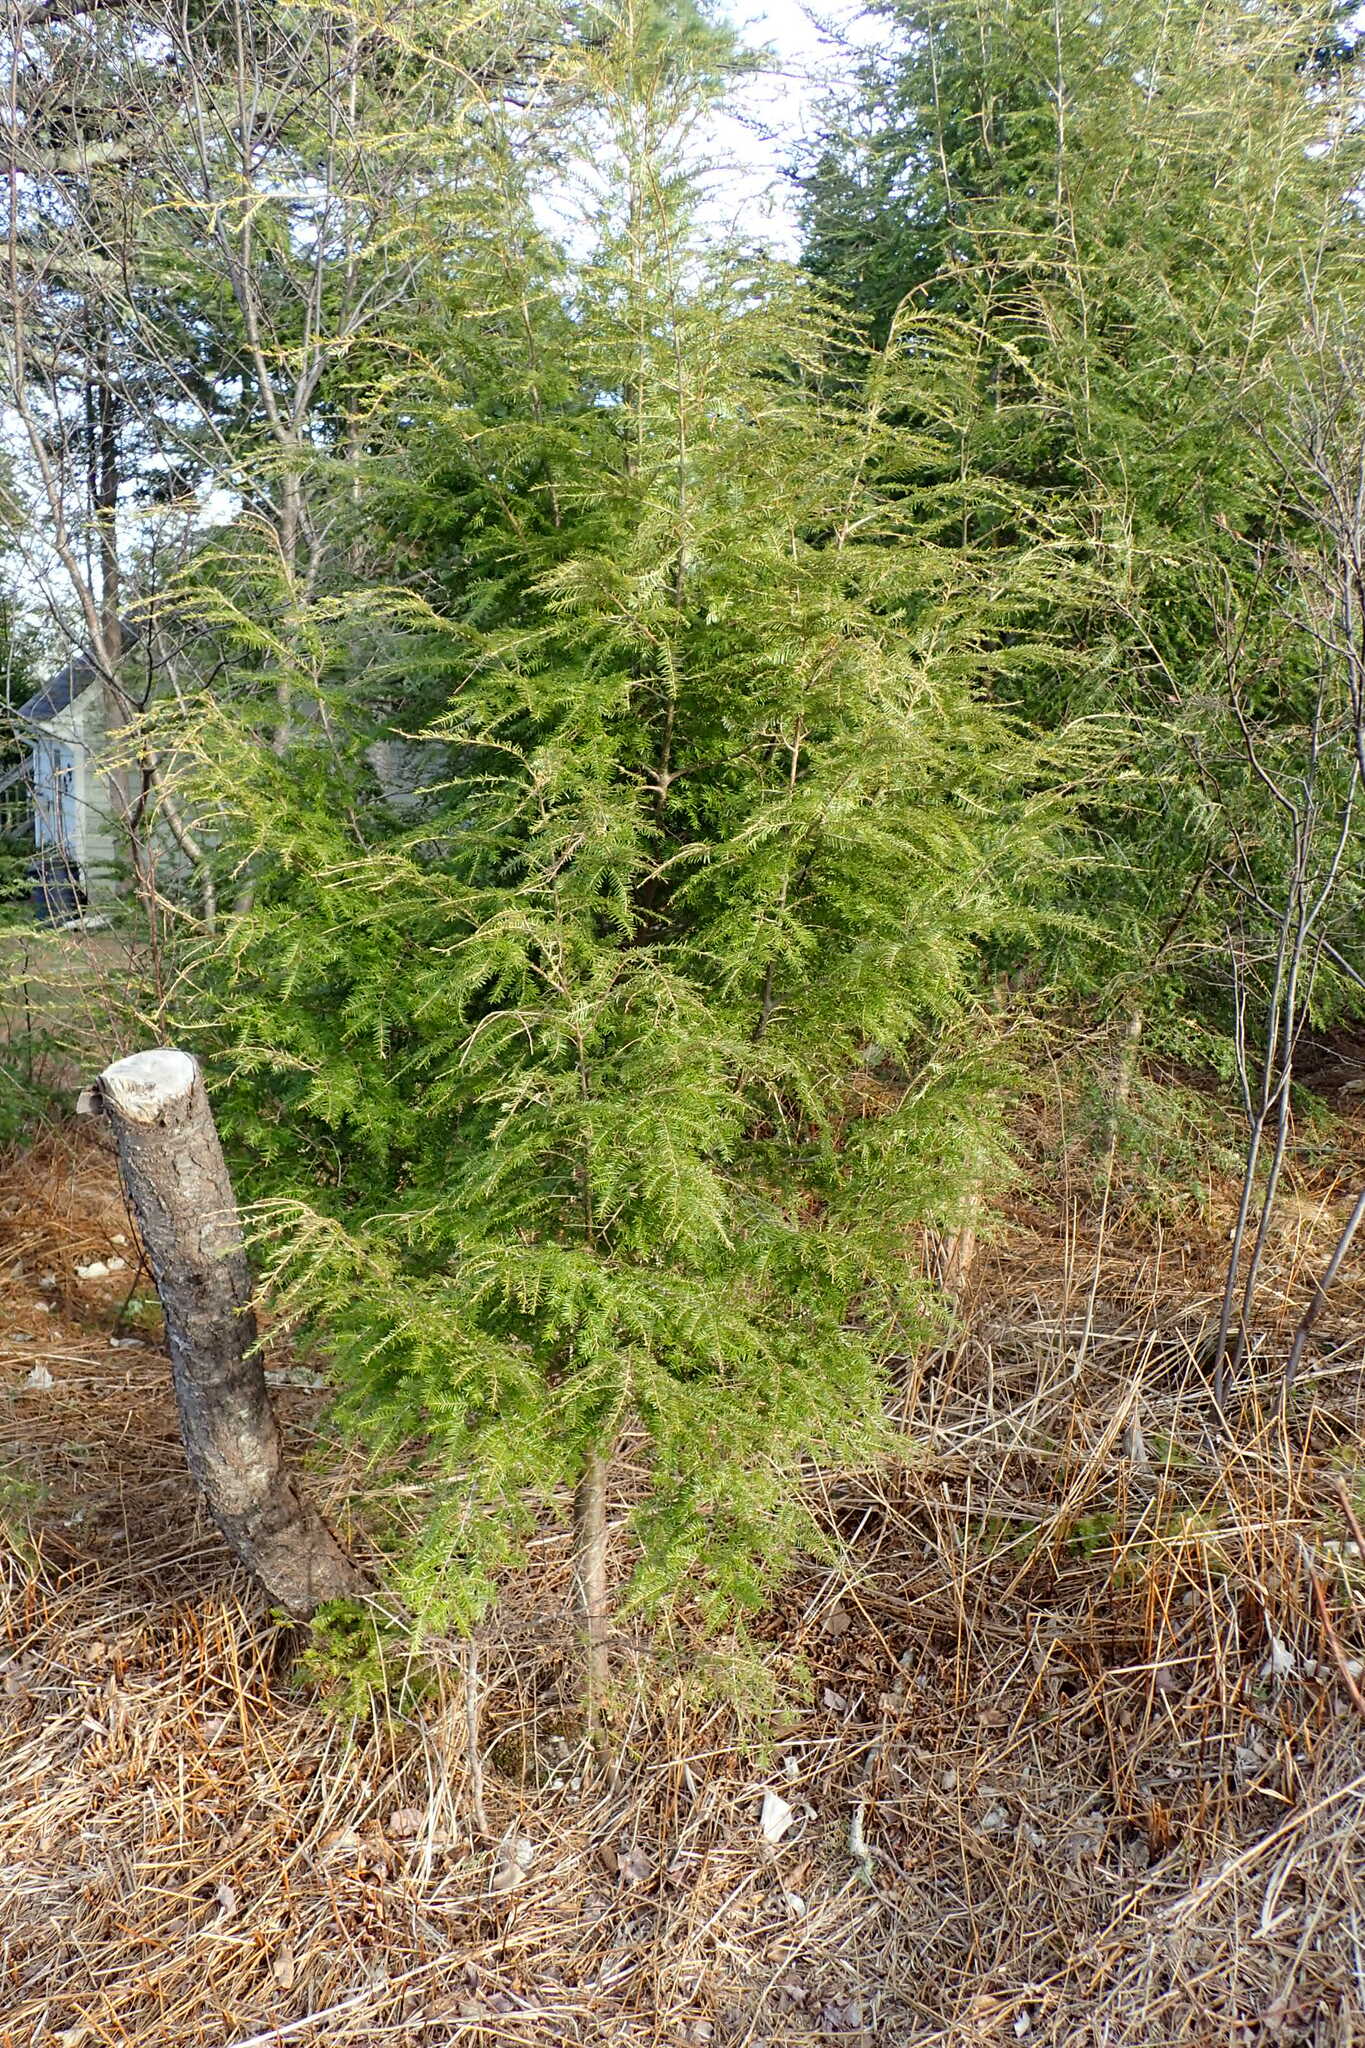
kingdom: Plantae
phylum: Tracheophyta
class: Pinopsida
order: Pinales
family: Pinaceae
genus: Tsuga
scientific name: Tsuga canadensis
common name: Eastern hemlock
